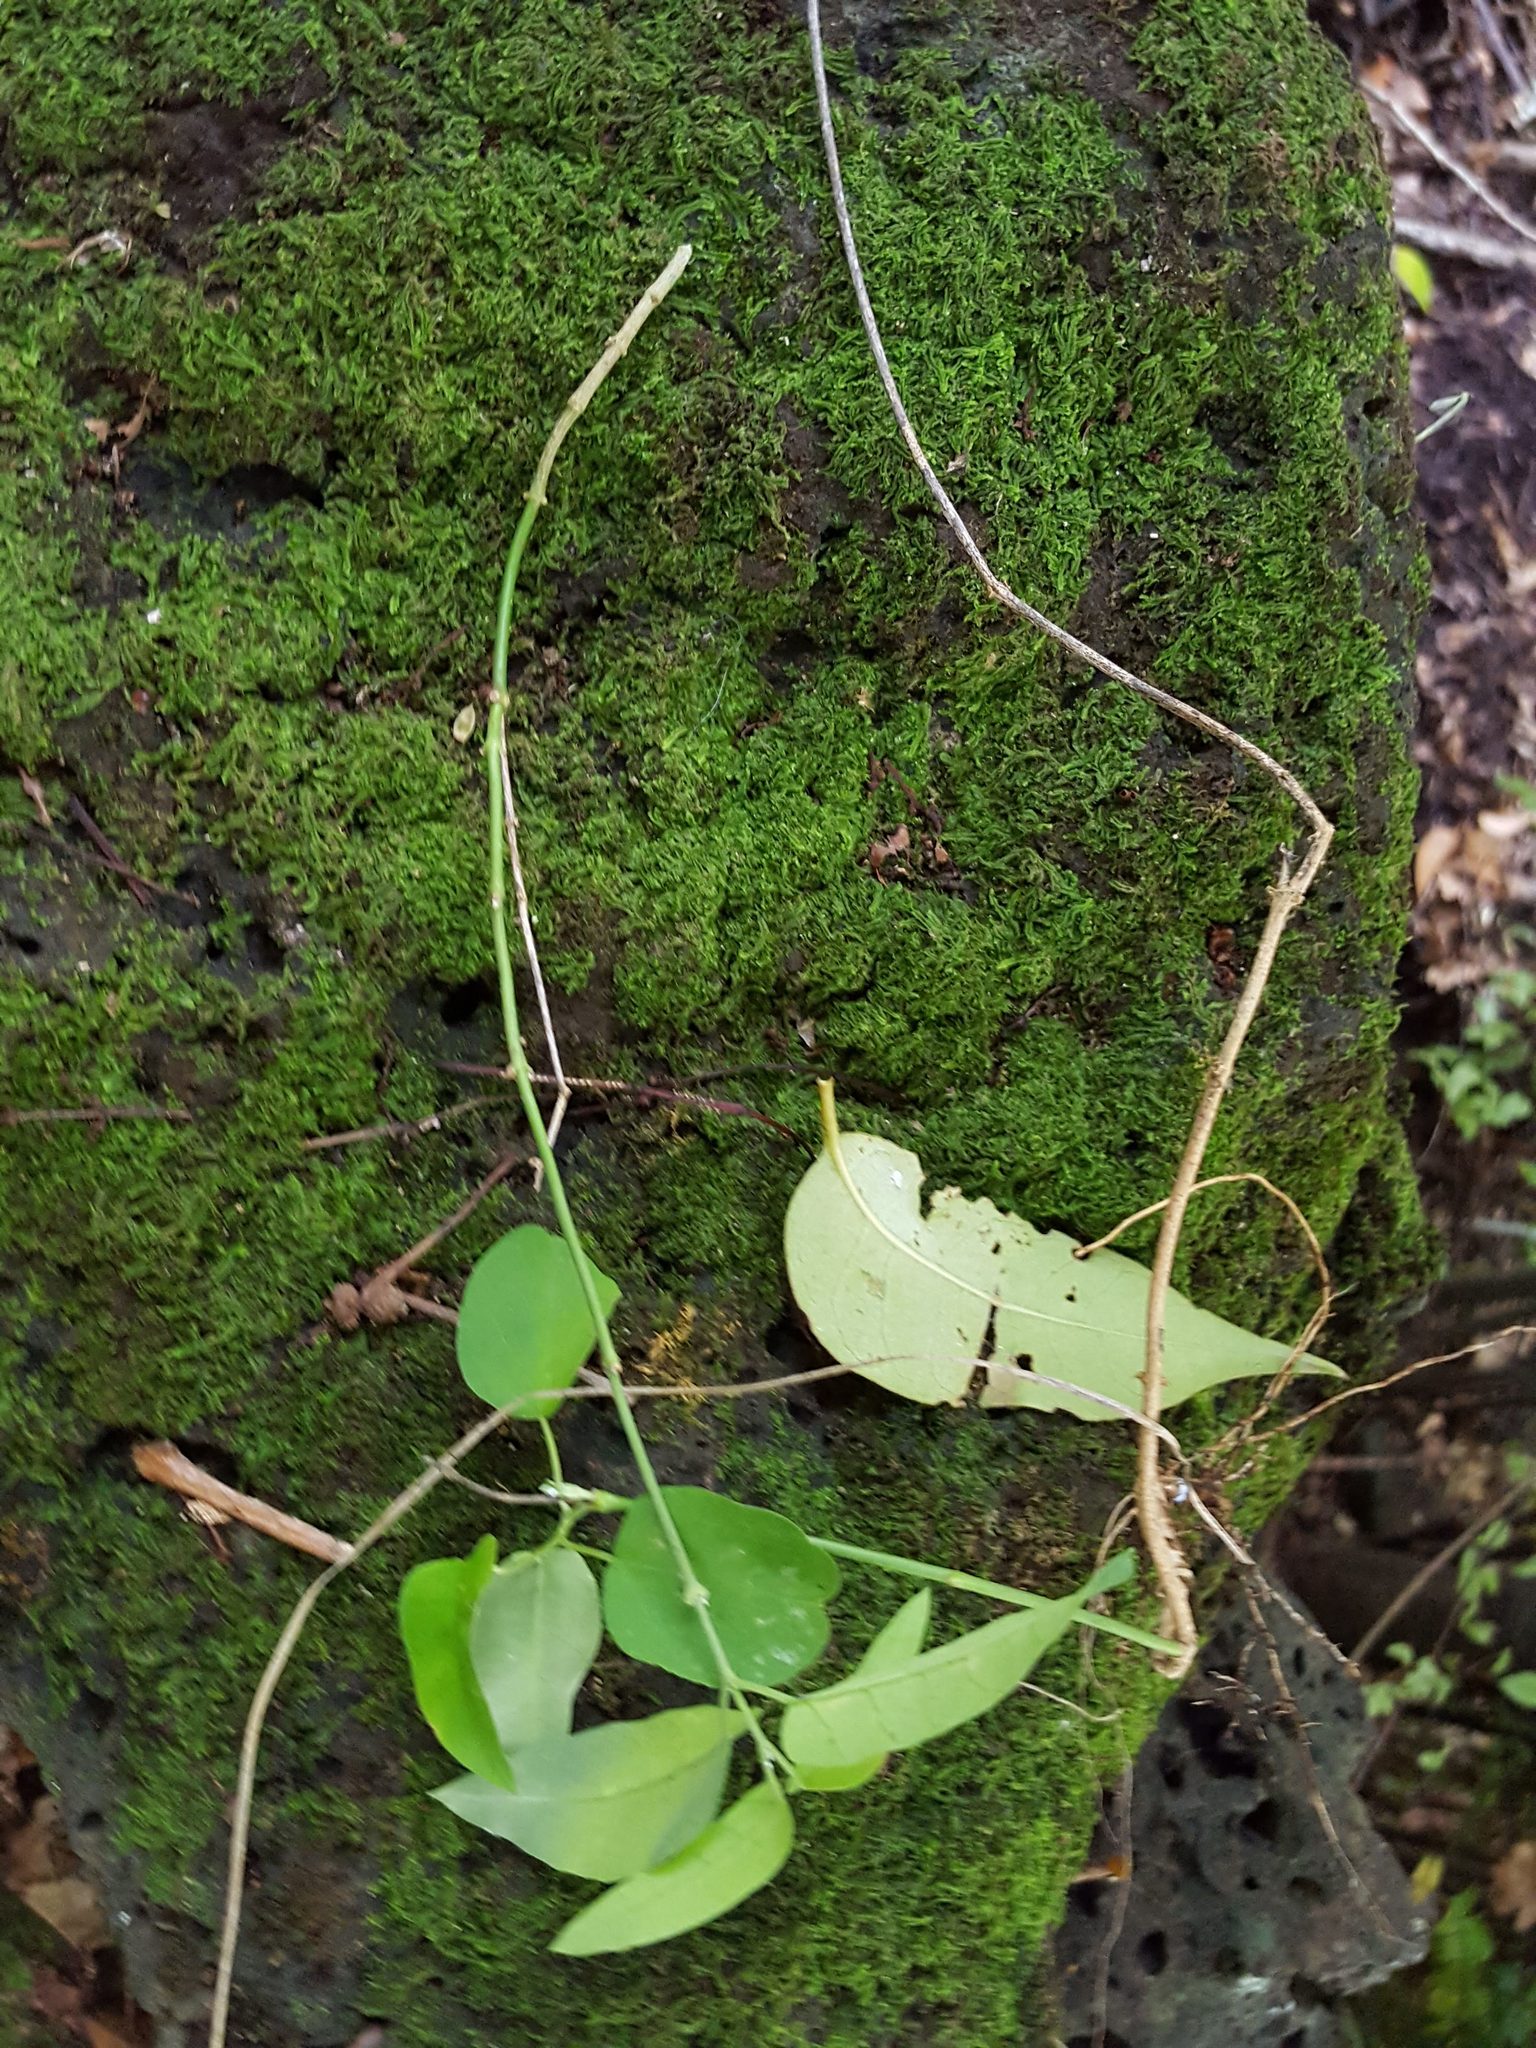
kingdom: Plantae
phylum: Tracheophyta
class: Magnoliopsida
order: Gentianales
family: Apocynaceae
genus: Araujia
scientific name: Araujia sericifera
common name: White bladderflower
